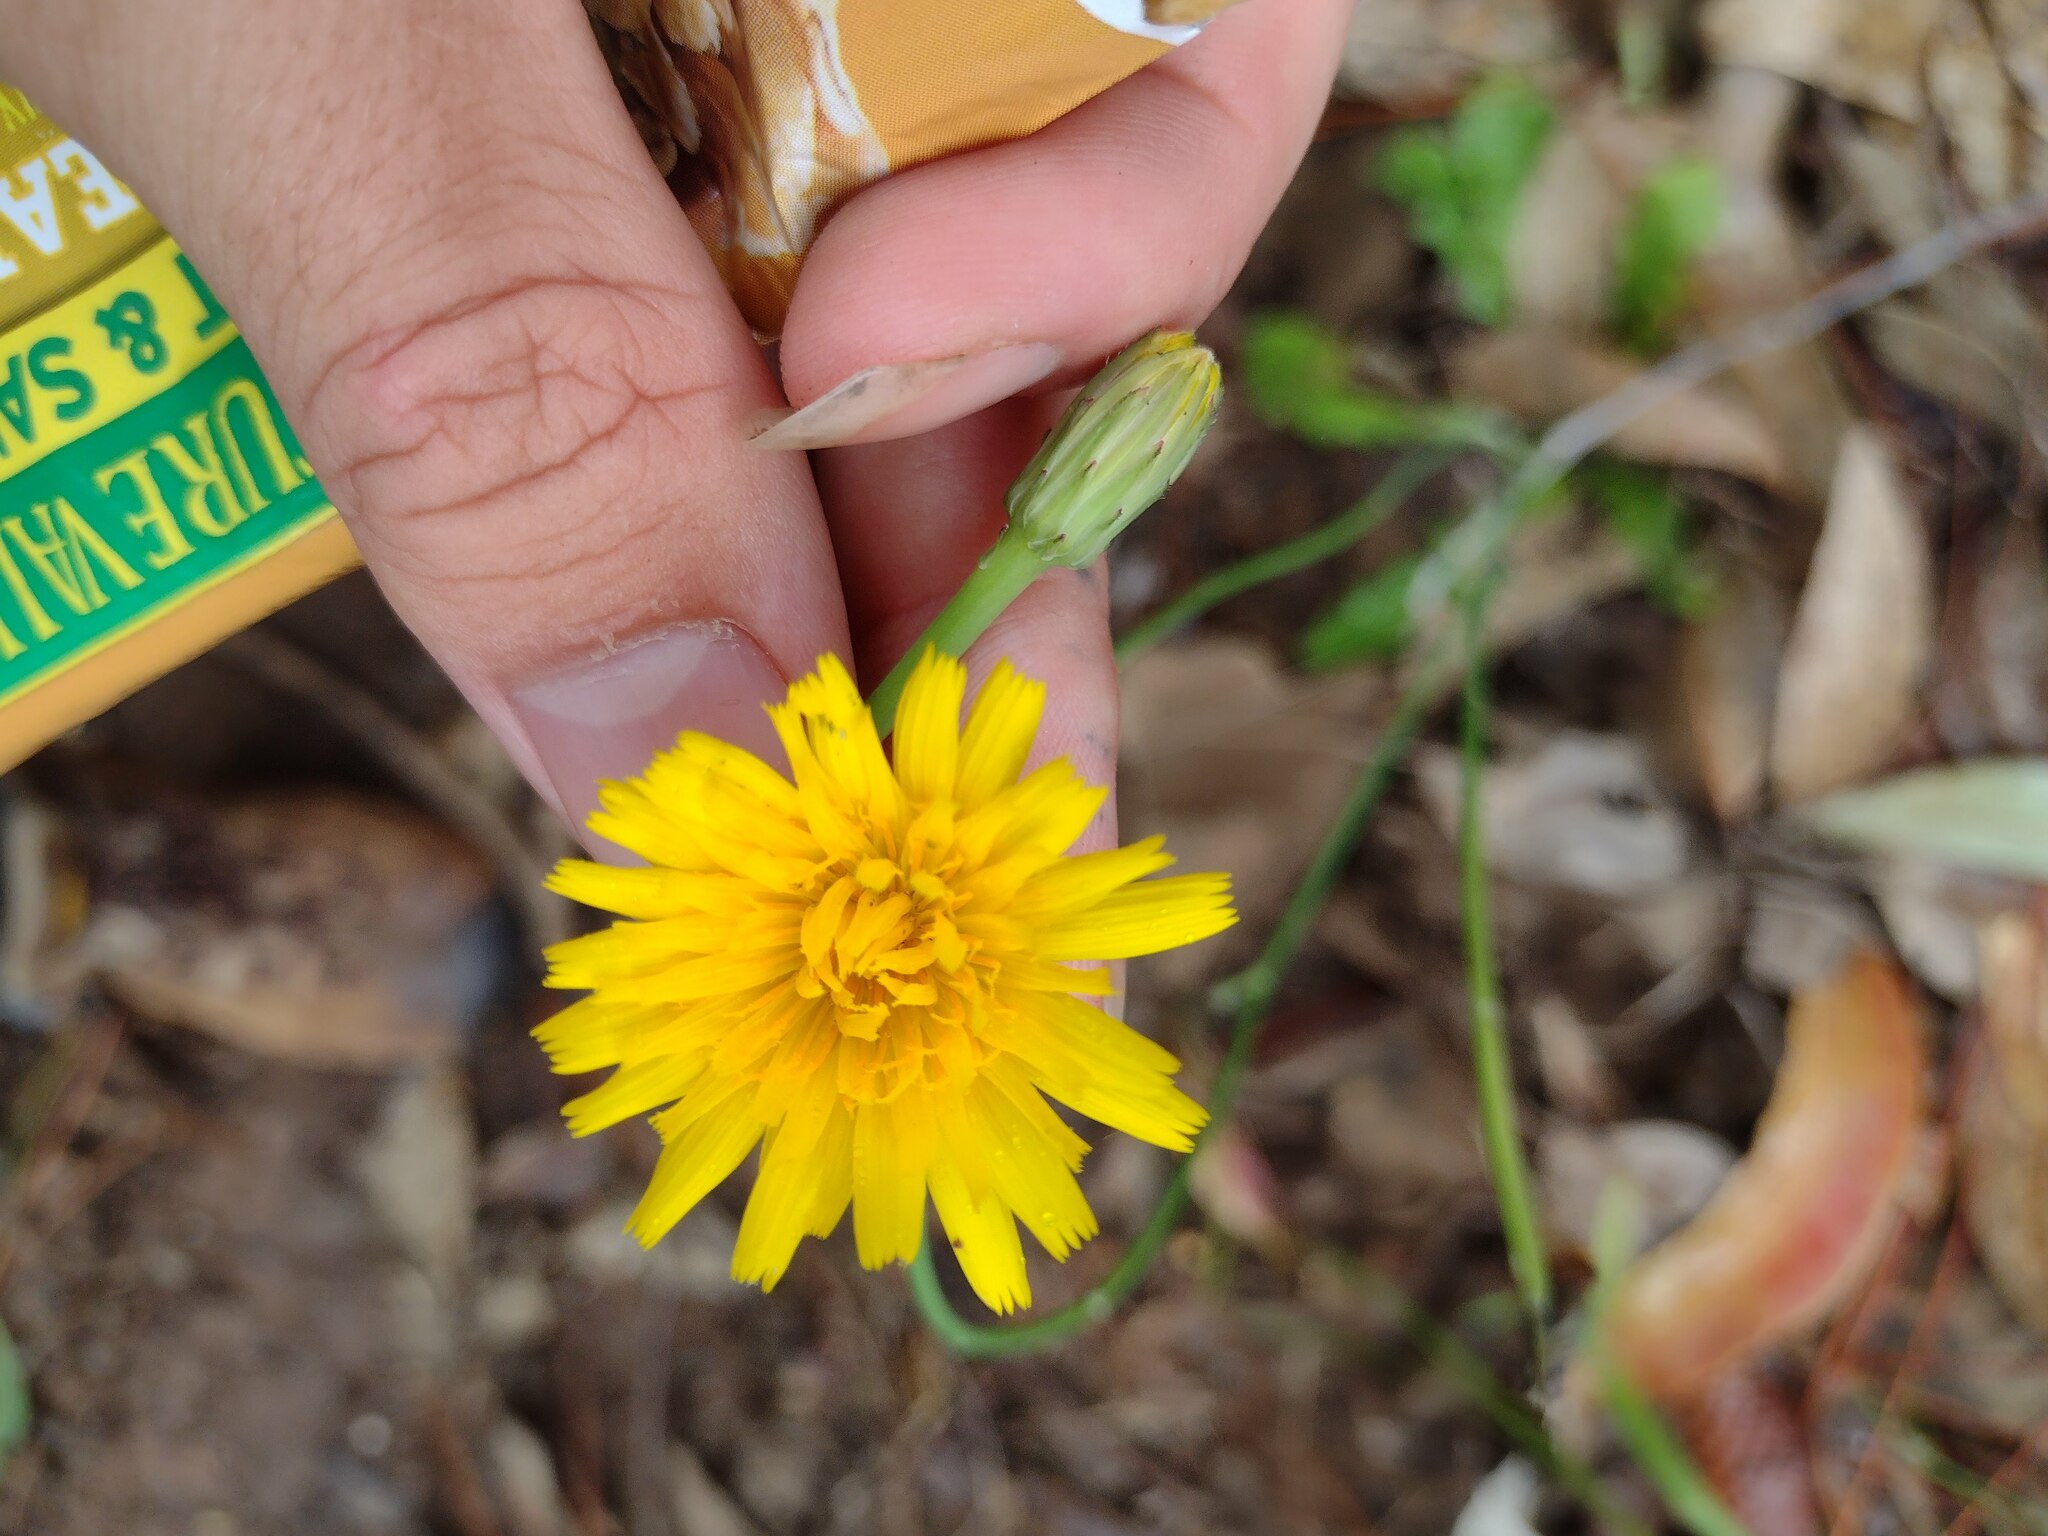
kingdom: Plantae
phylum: Tracheophyta
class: Magnoliopsida
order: Asterales
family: Asteraceae
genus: Hypochaeris
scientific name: Hypochaeris radicata
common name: Flatweed
